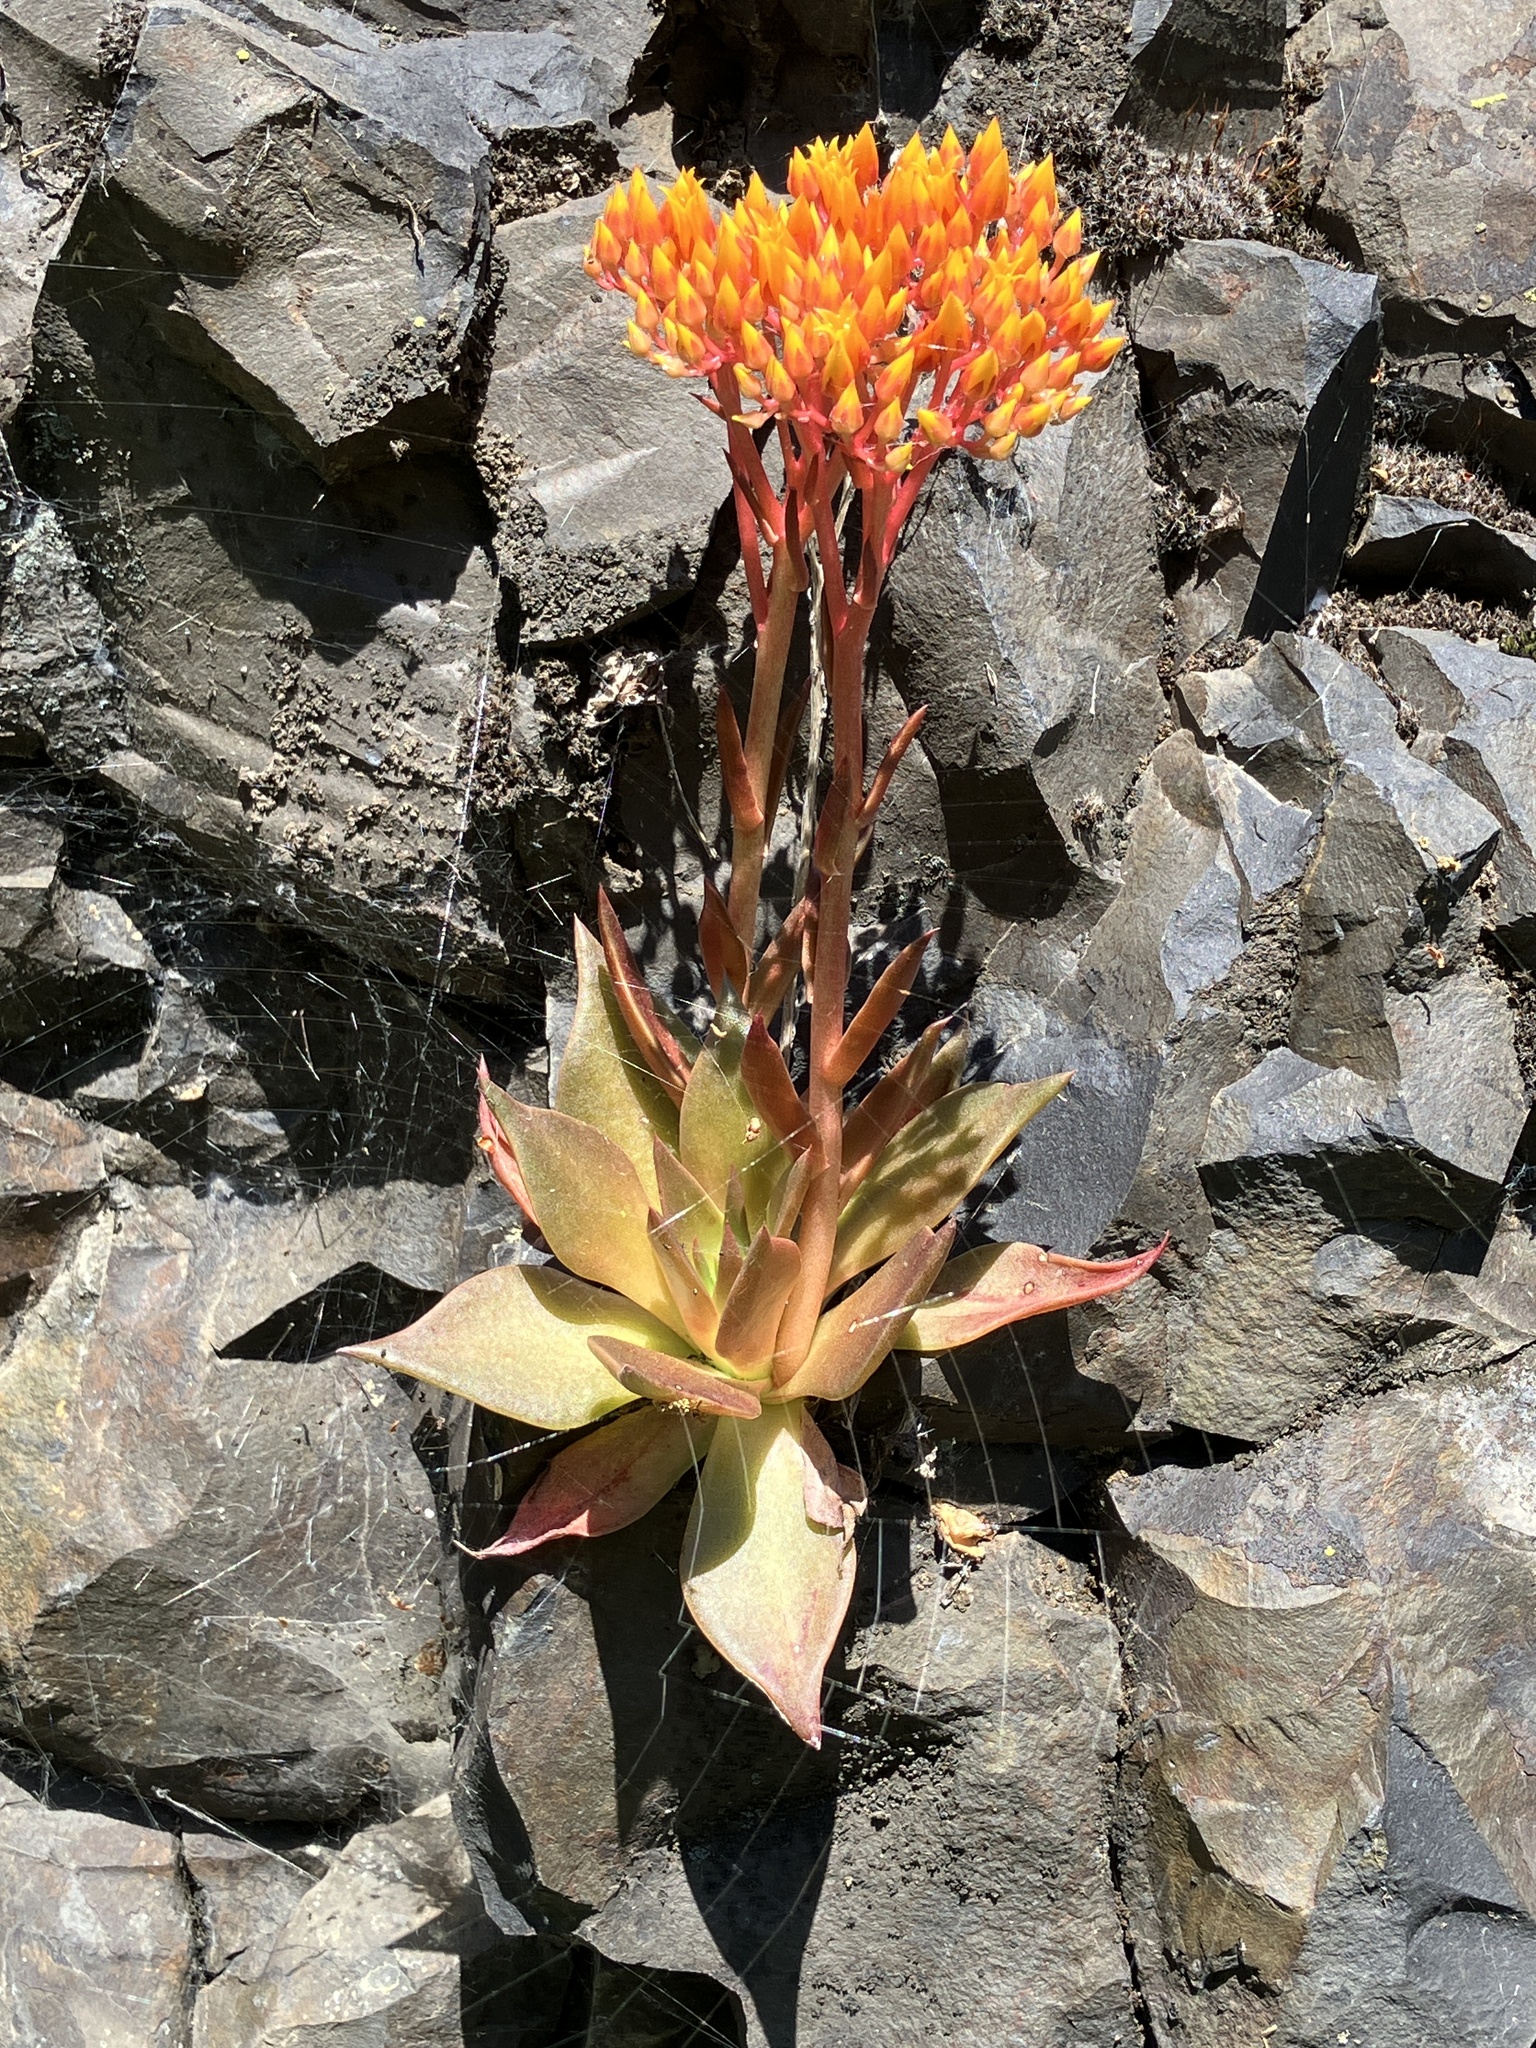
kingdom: Plantae
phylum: Tracheophyta
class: Magnoliopsida
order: Saxifragales
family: Crassulaceae
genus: Dudleya
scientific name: Dudleya cymosa
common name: Canyon dudleya
